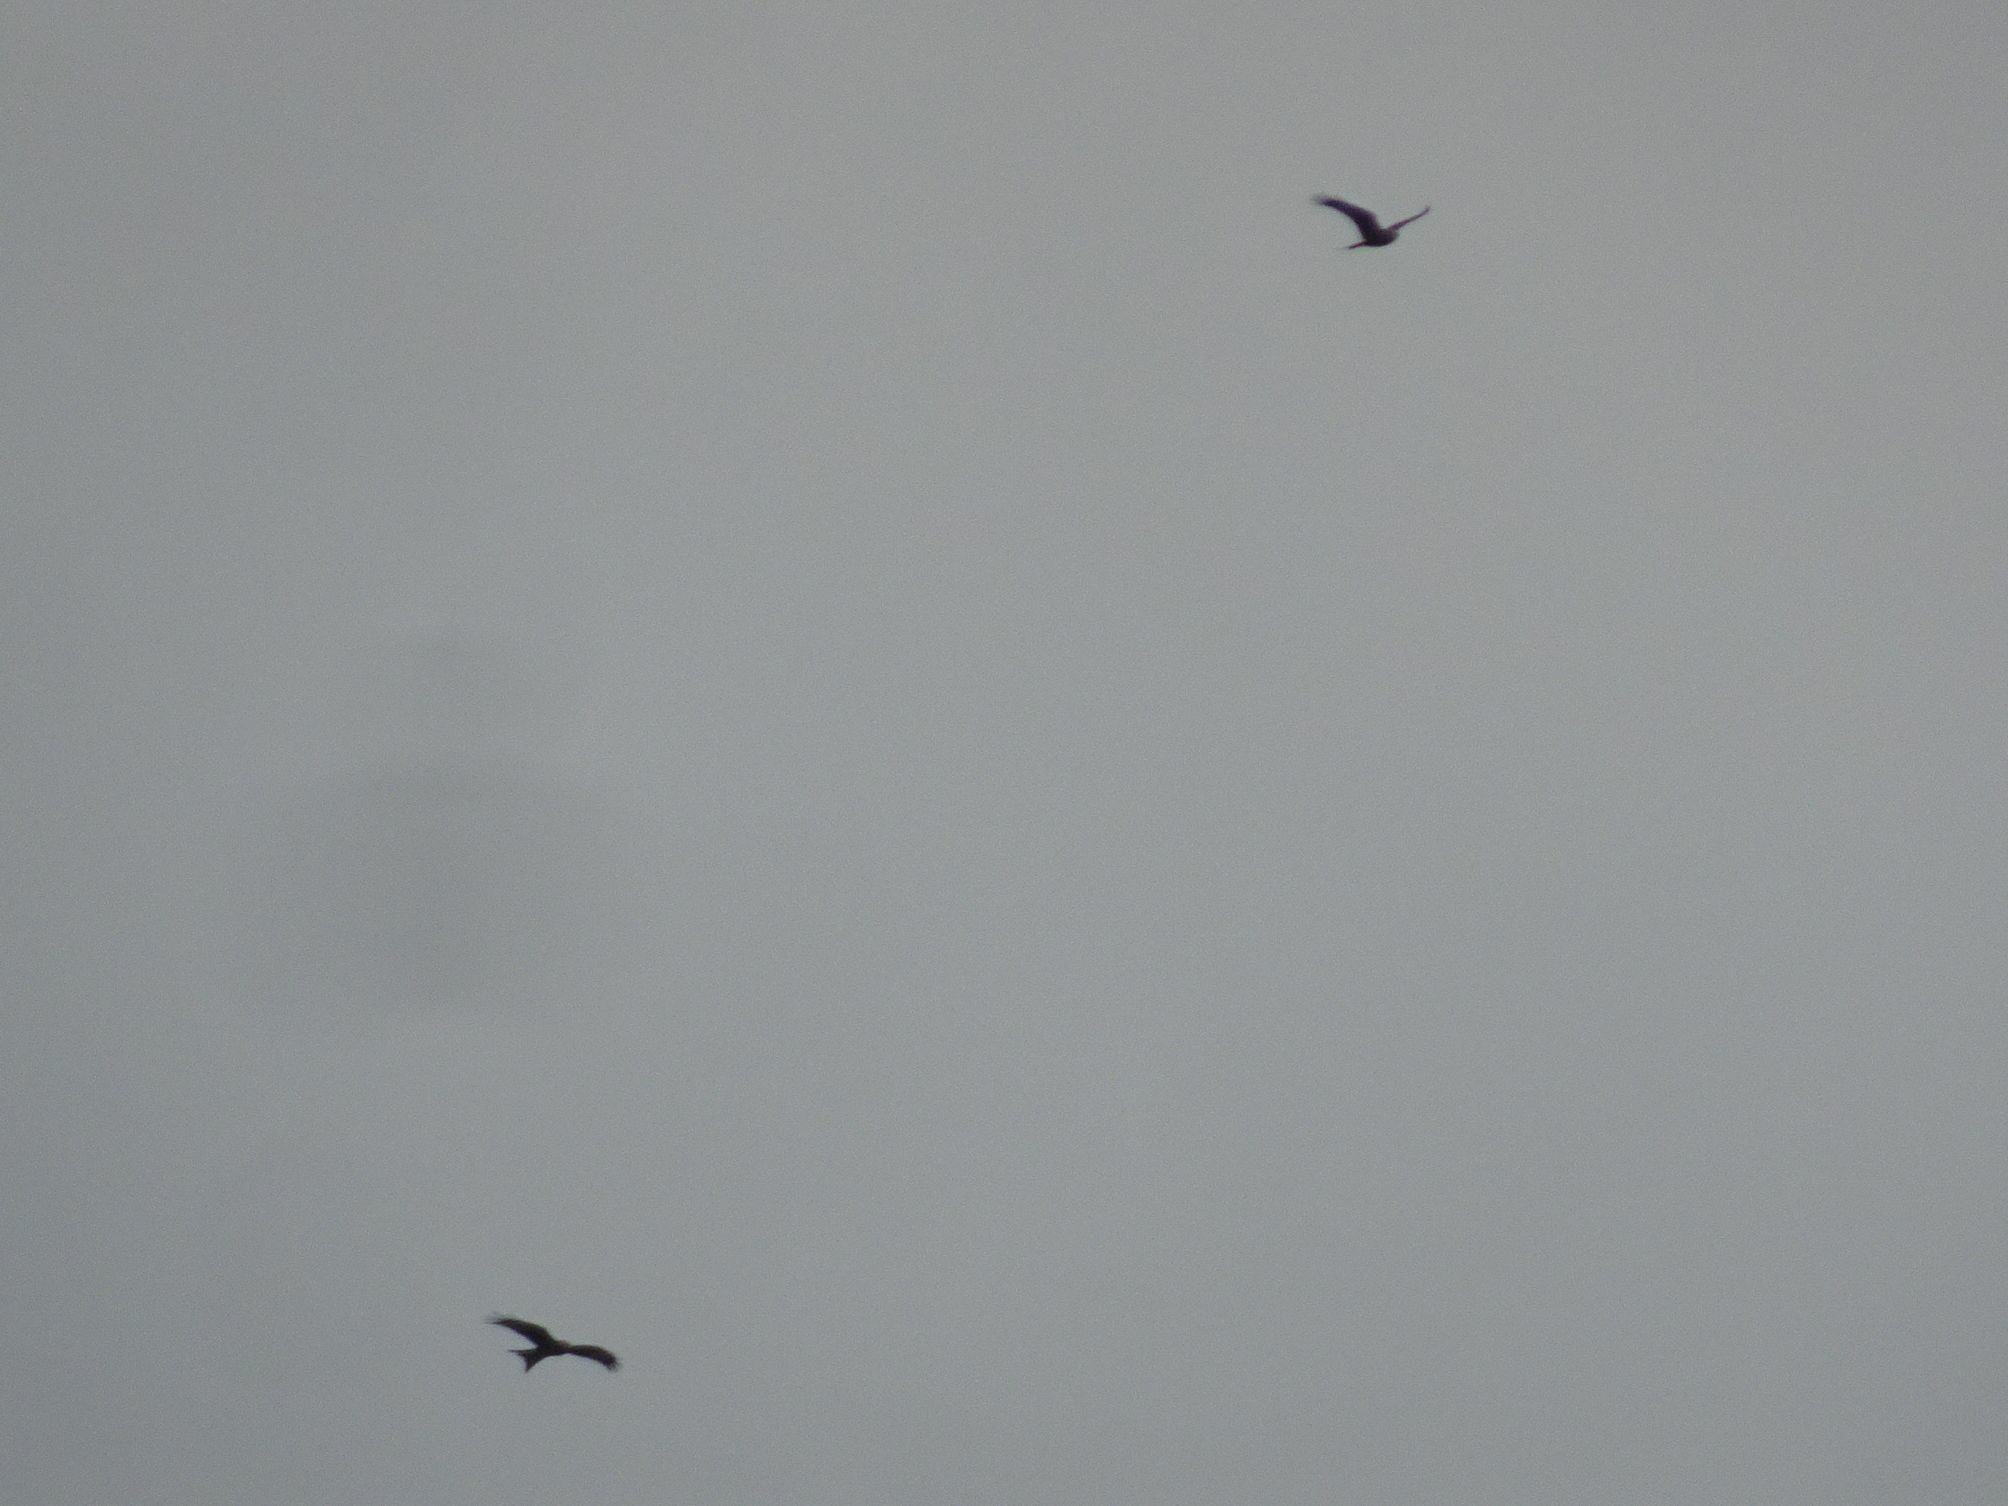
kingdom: Animalia
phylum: Chordata
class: Aves
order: Accipitriformes
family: Accipitridae
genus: Milvus
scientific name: Milvus milvus
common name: Red kite
